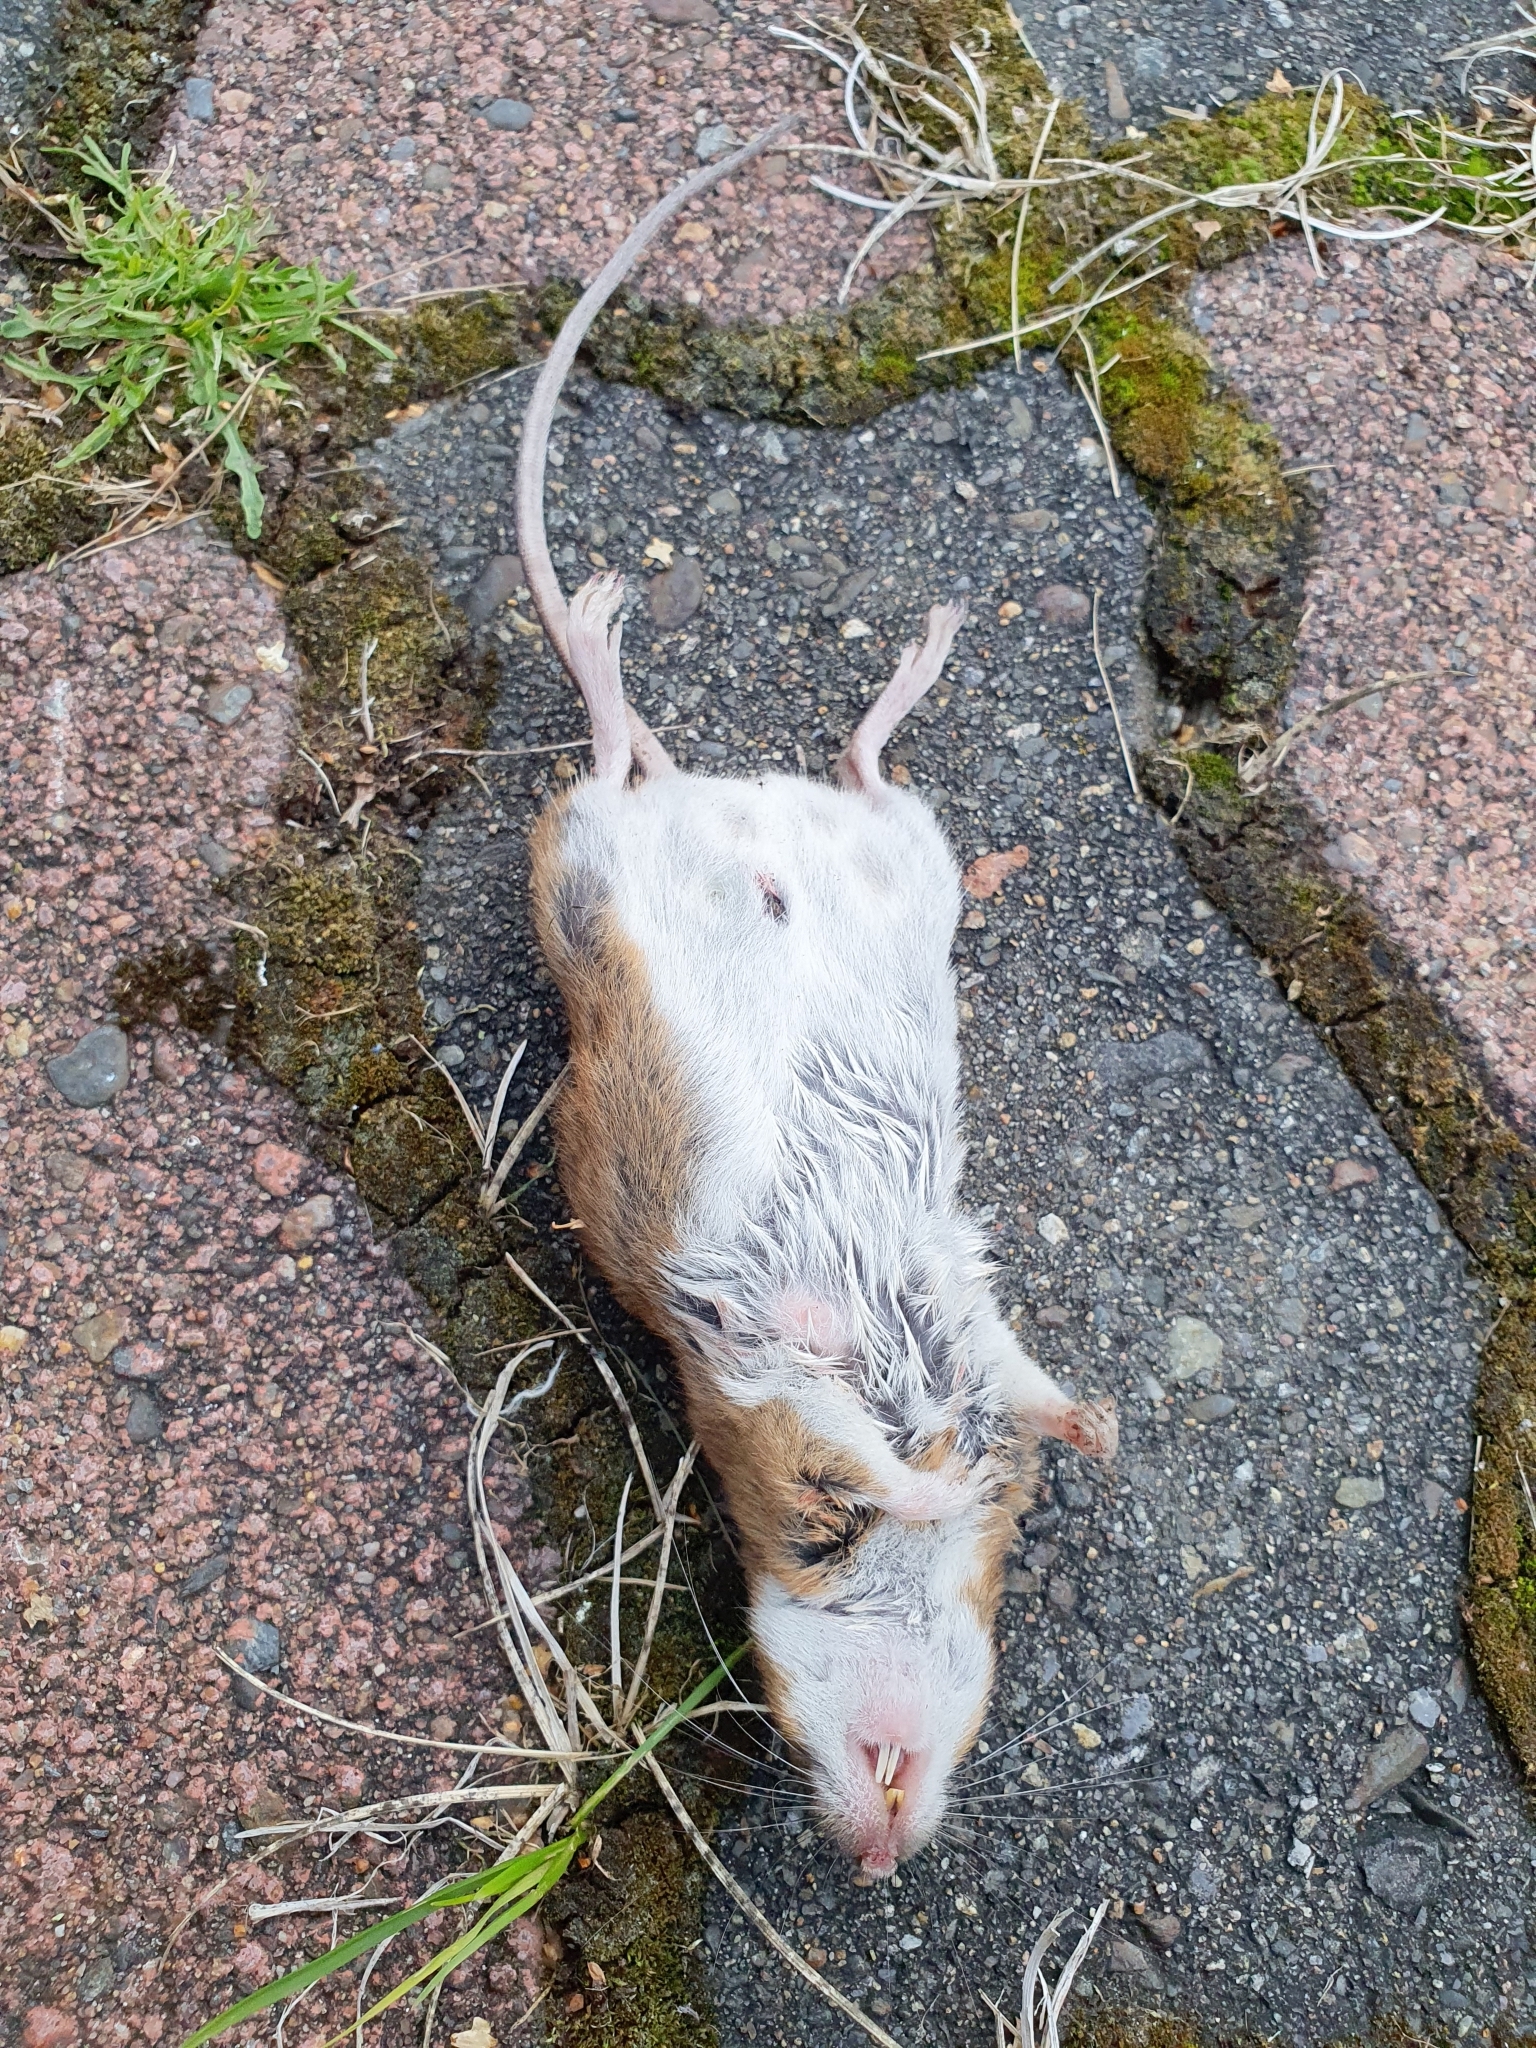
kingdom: Animalia
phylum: Chordata
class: Mammalia
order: Rodentia
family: Muridae
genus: Apodemus
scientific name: Apodemus flavicollis
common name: Yellow-necked field mouse
